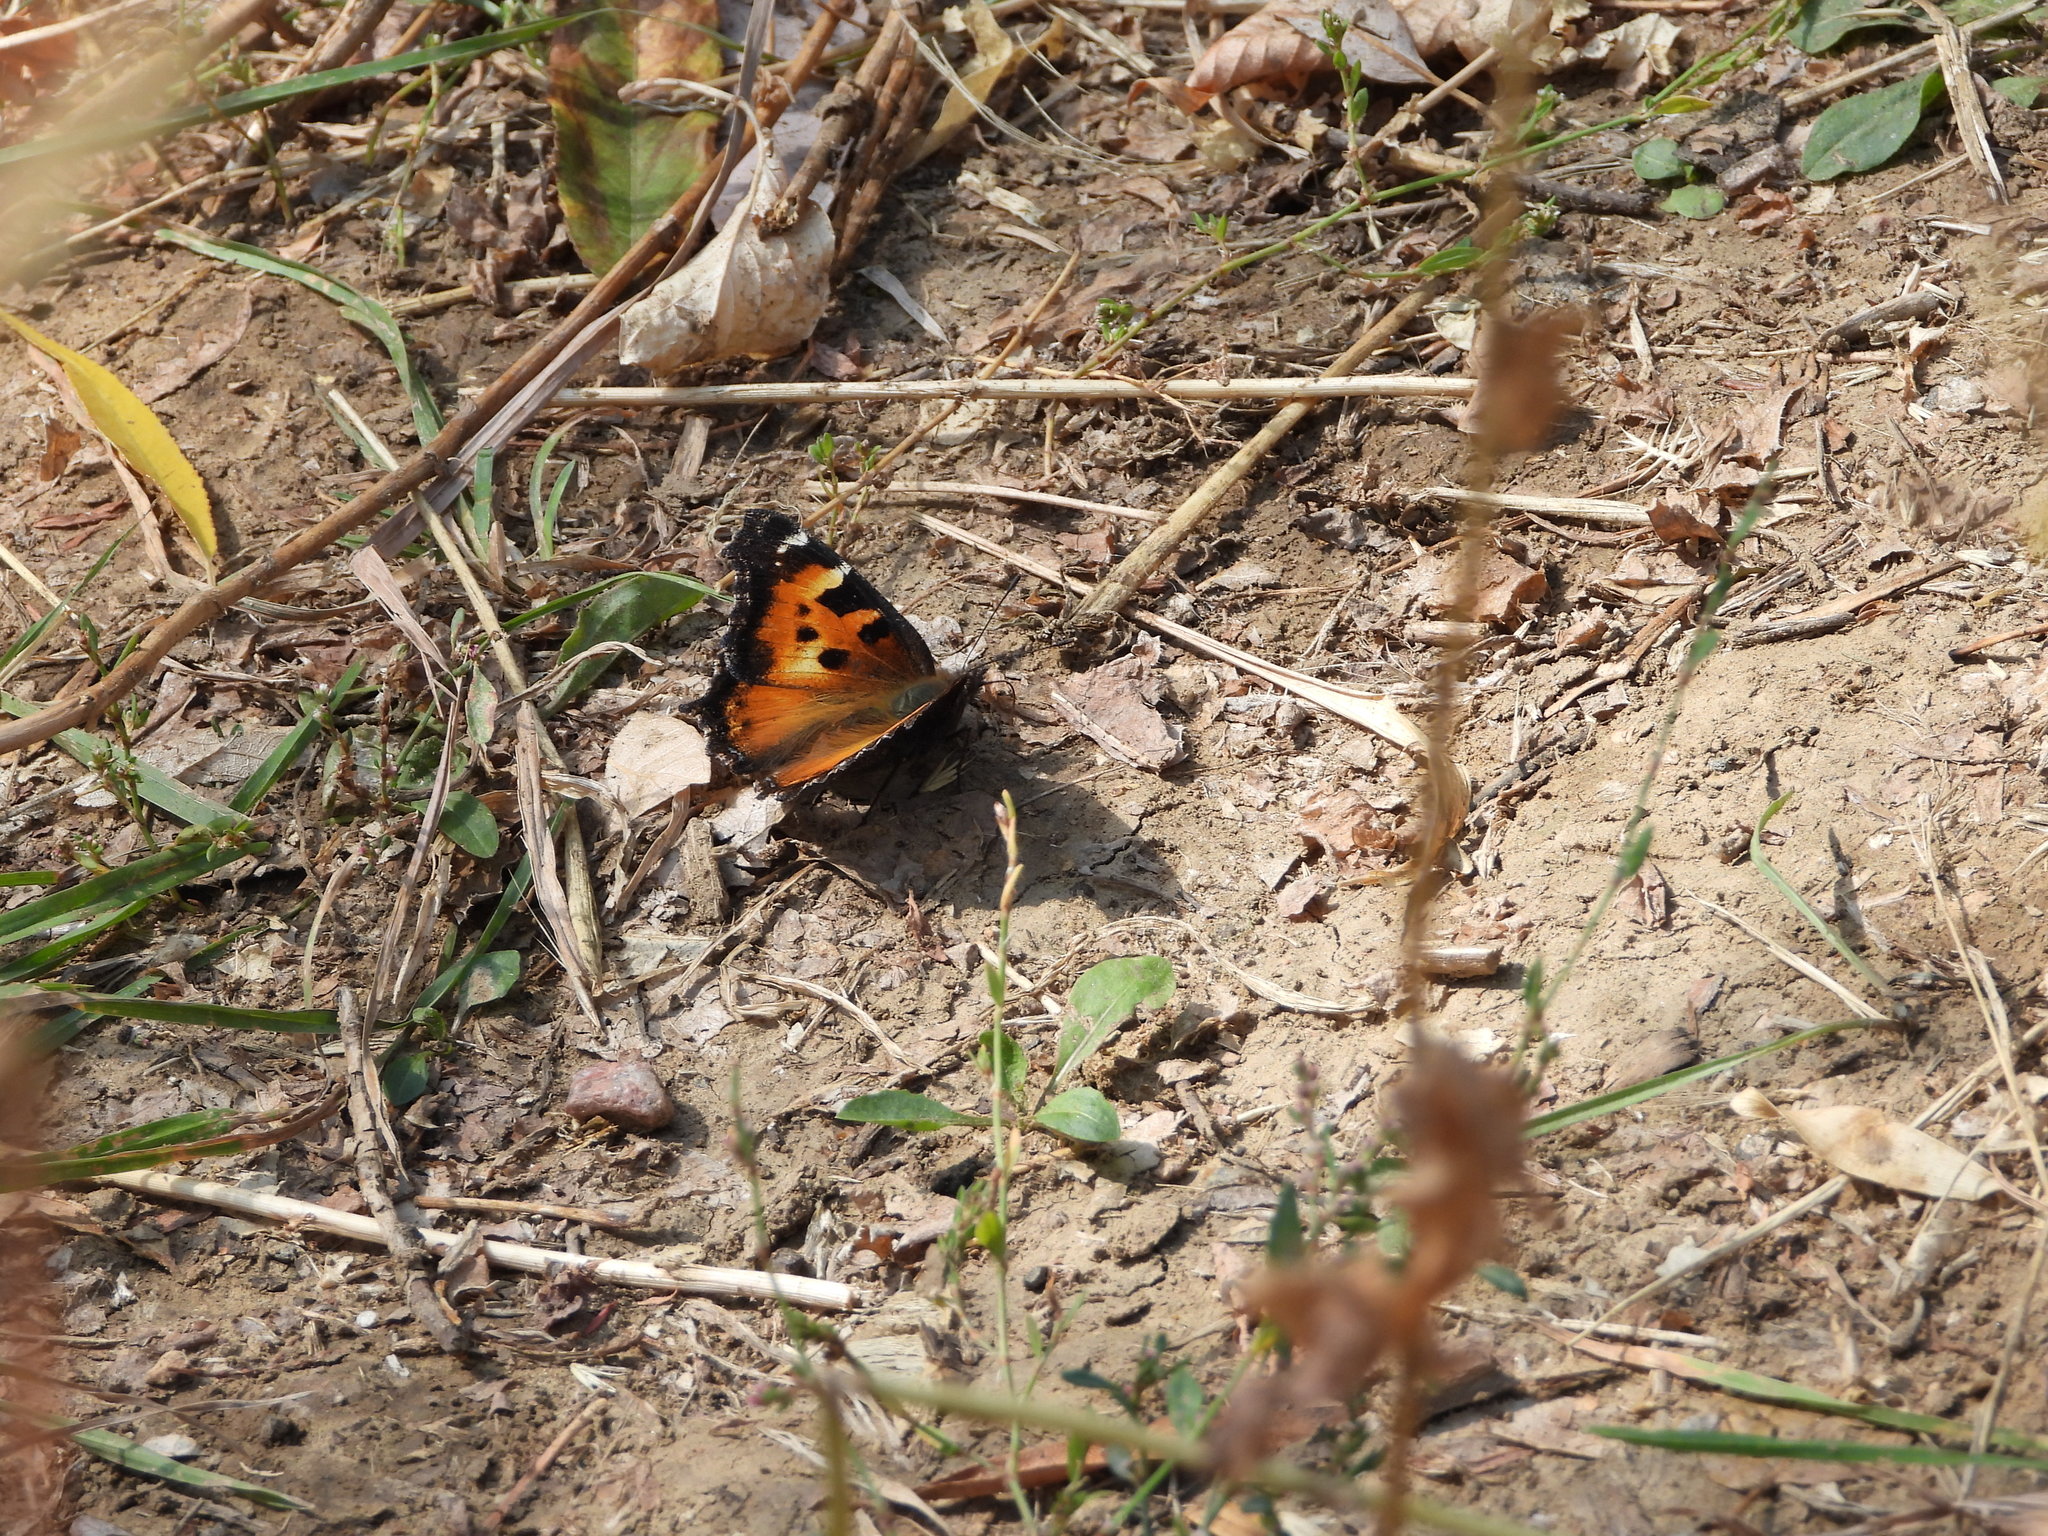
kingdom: Animalia
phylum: Arthropoda
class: Insecta
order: Lepidoptera
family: Nymphalidae
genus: Nymphalis
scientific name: Nymphalis californica
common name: California tortoiseshell
